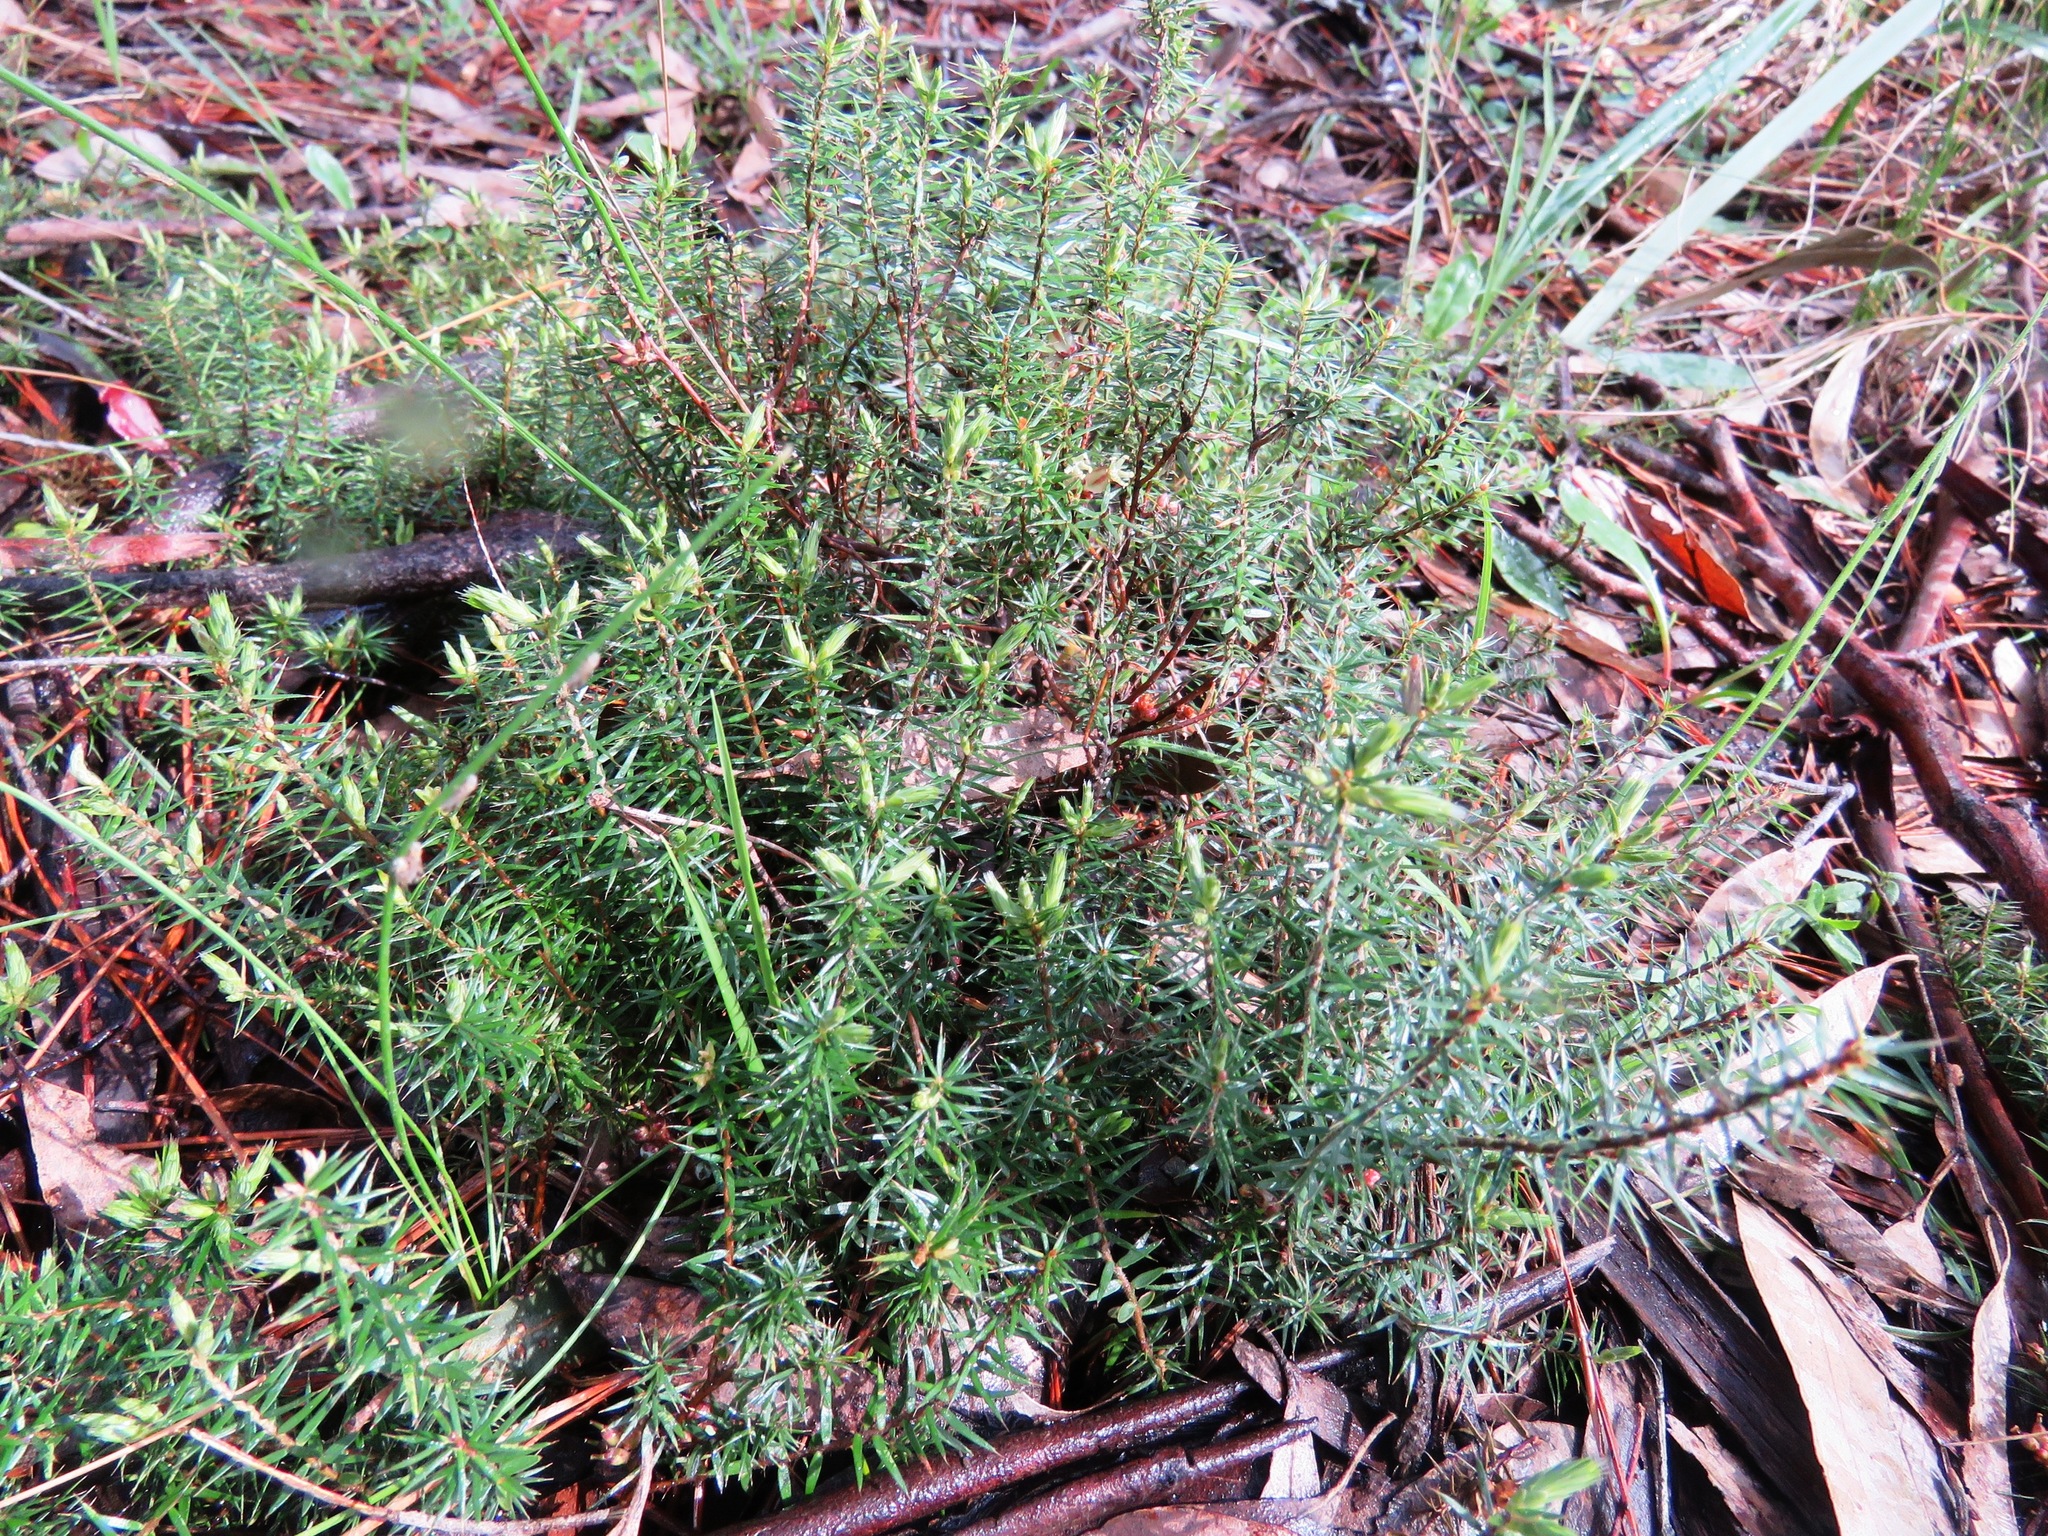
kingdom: Plantae
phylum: Tracheophyta
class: Magnoliopsida
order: Ericales
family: Ericaceae
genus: Acrotriche
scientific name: Acrotriche serrulata
